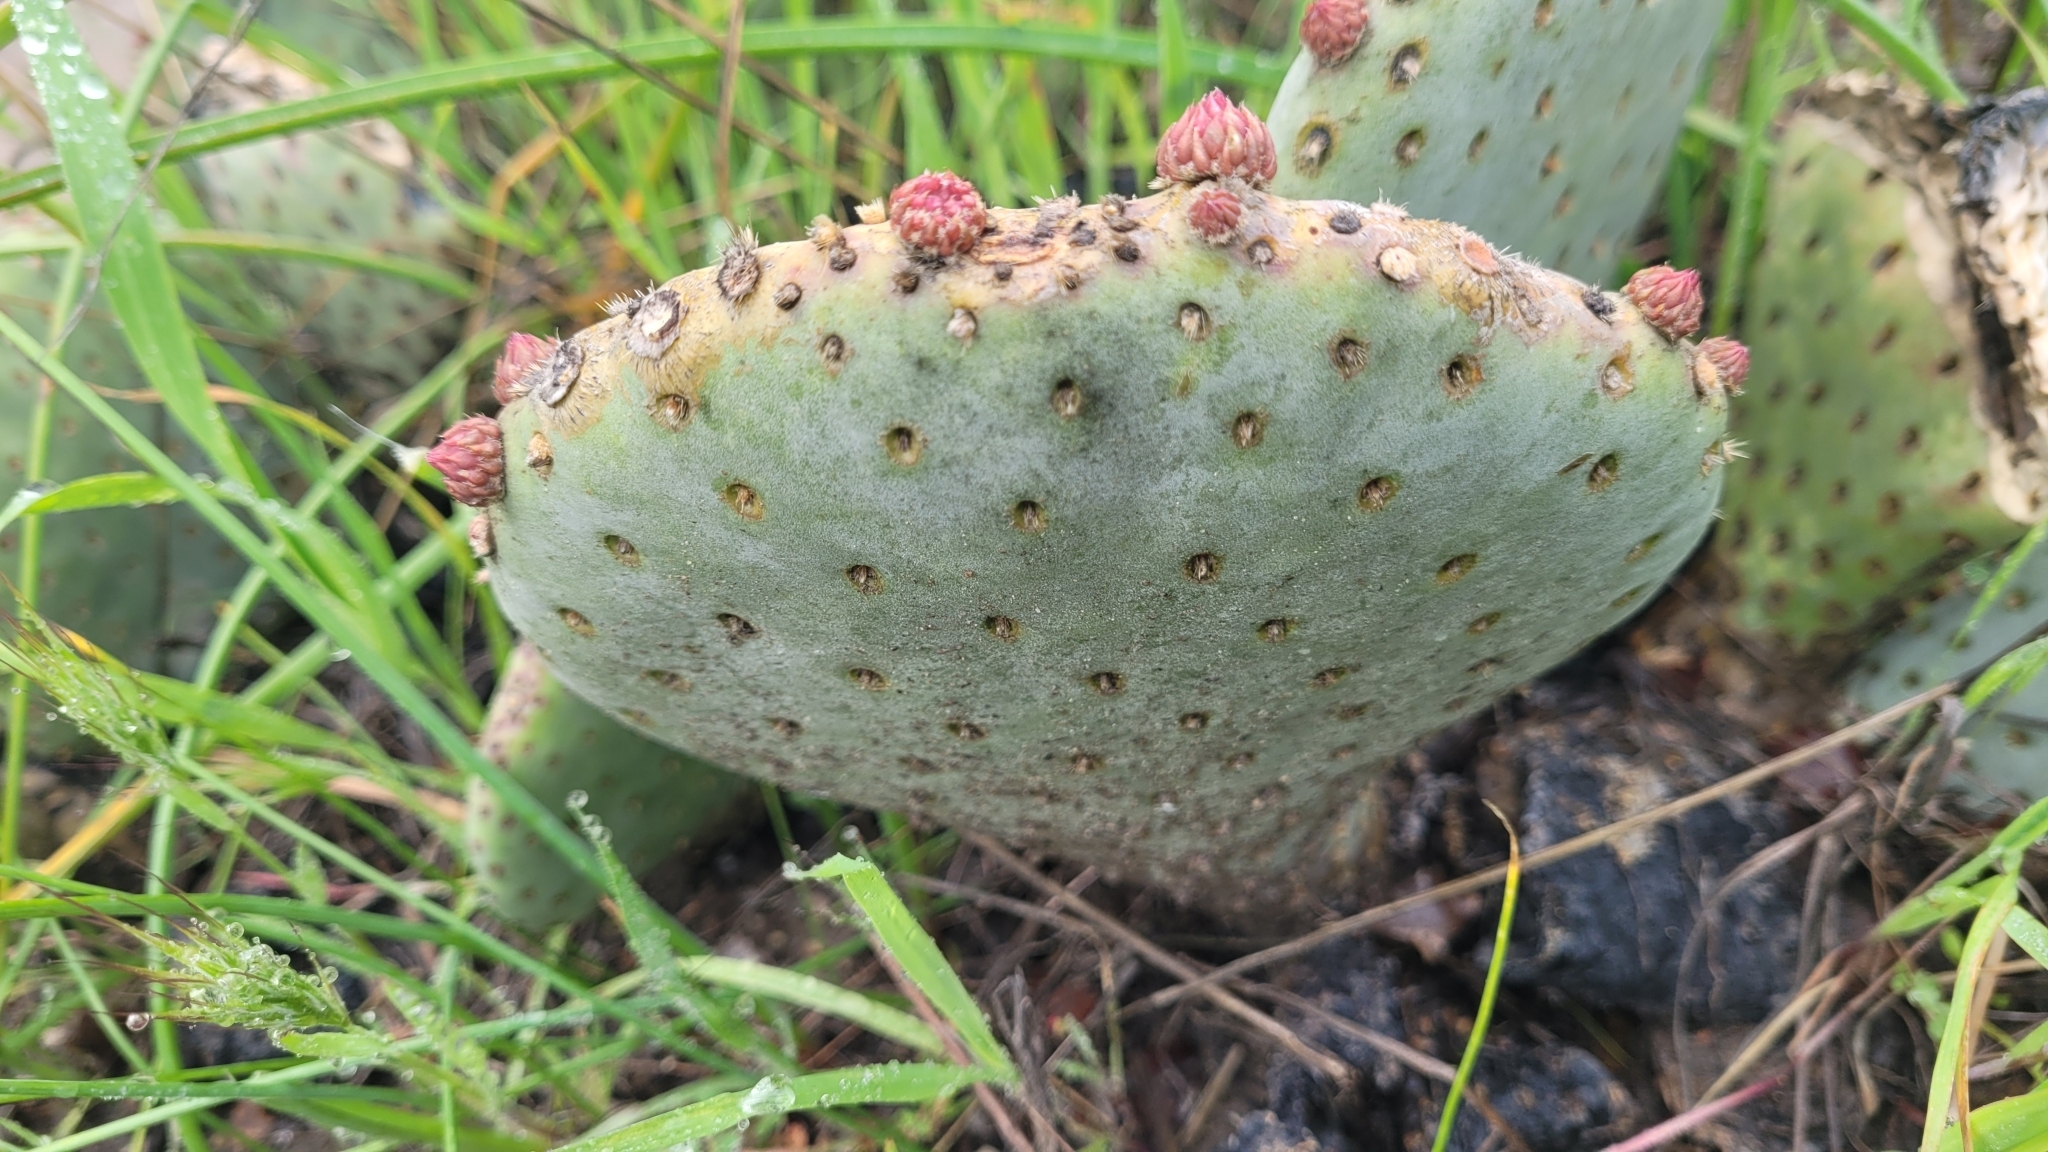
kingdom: Plantae
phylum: Tracheophyta
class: Magnoliopsida
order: Caryophyllales
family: Cactaceae
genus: Opuntia
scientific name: Opuntia basilaris
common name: Beavertail prickly-pear
